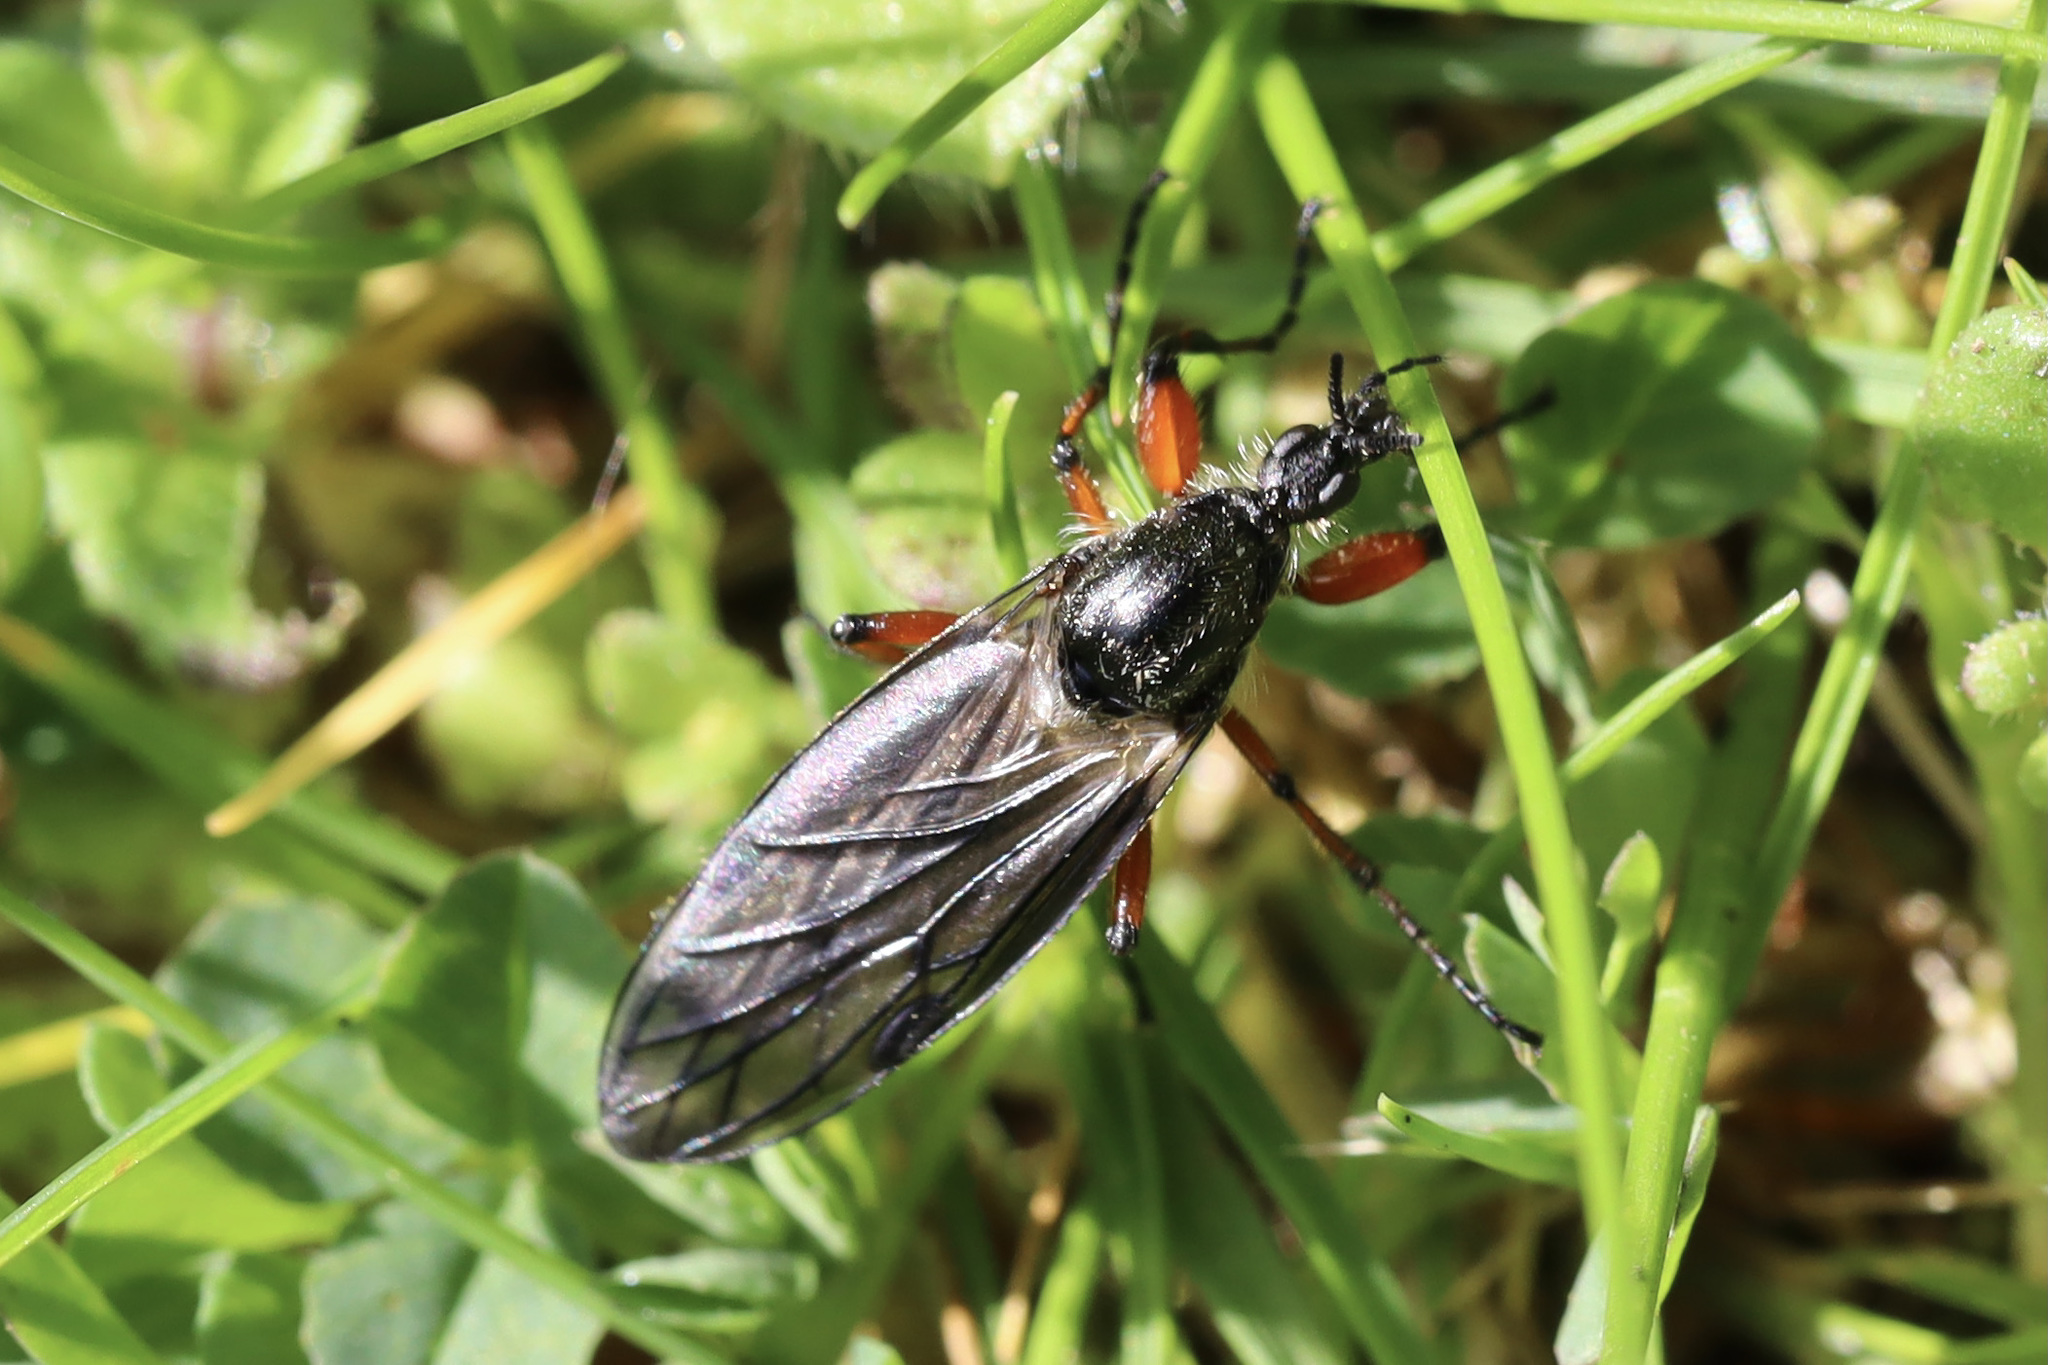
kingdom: Animalia
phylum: Arthropoda
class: Insecta
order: Diptera
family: Bibionidae
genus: Bibio
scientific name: Bibio
